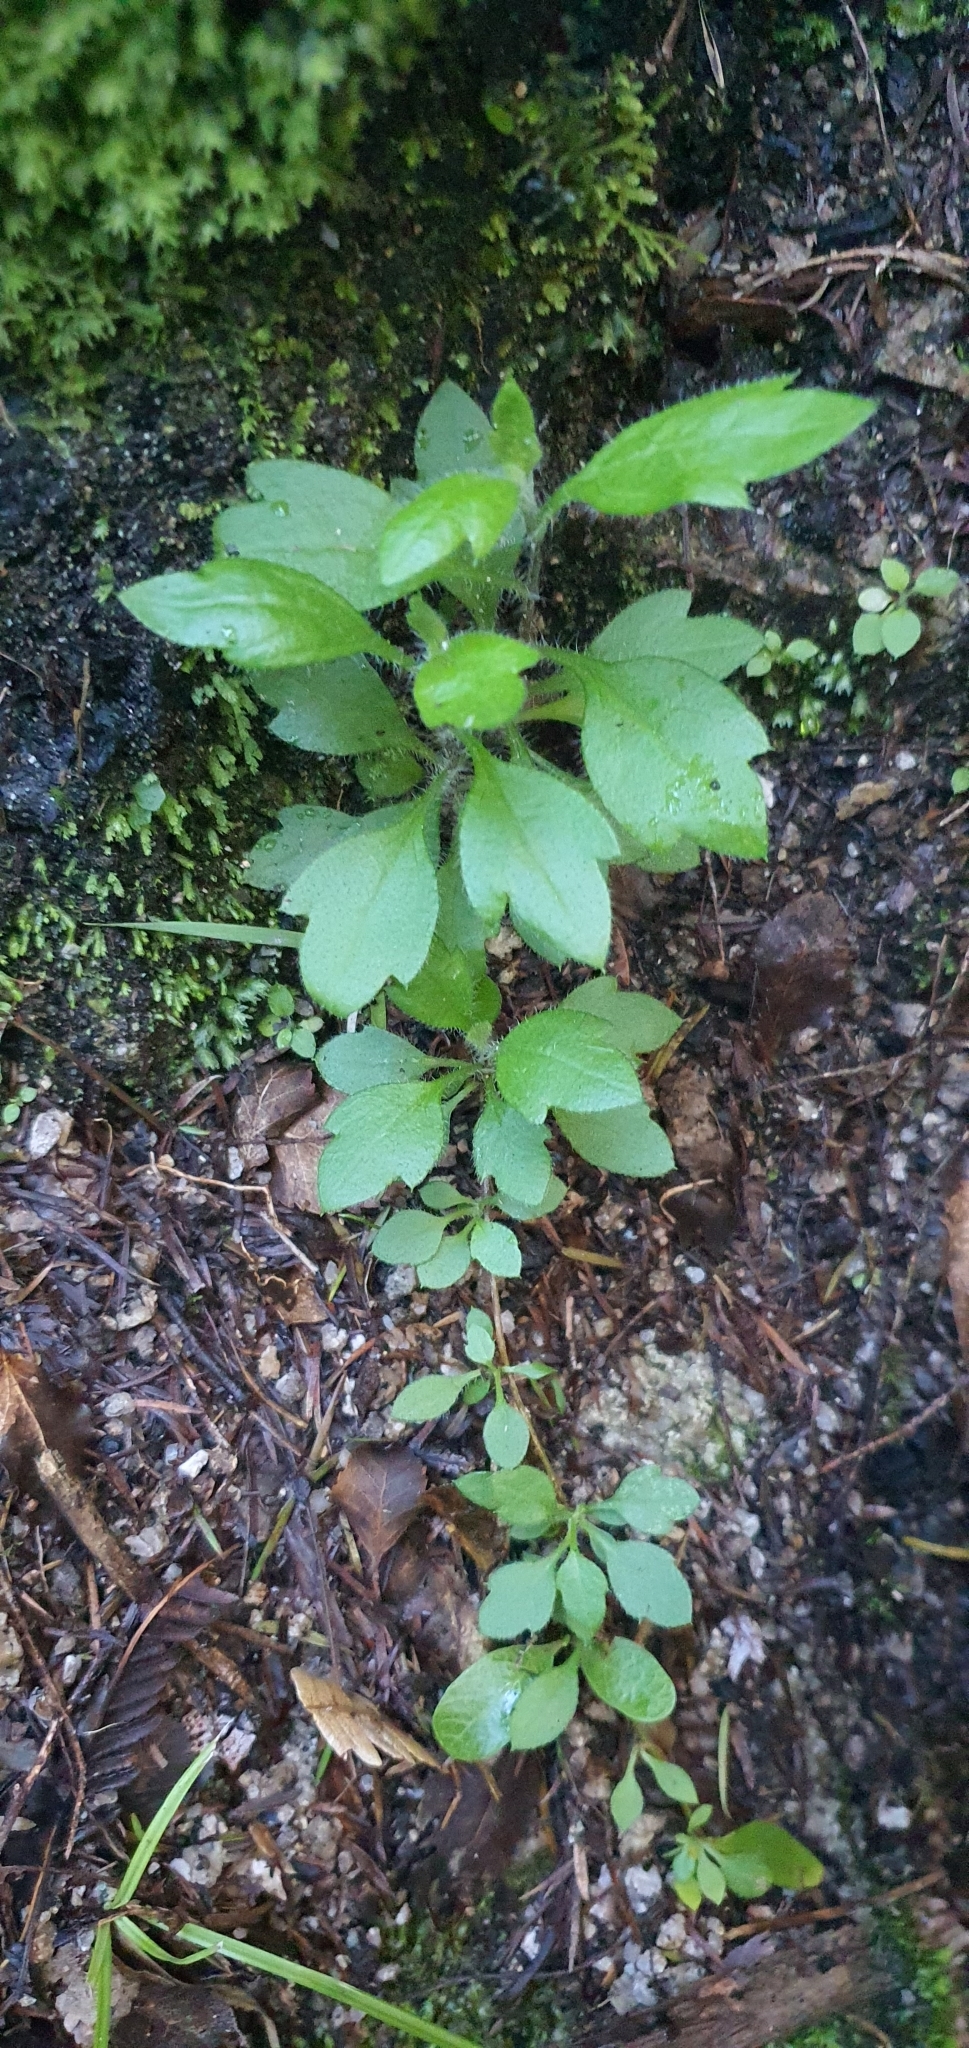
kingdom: Plantae
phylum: Tracheophyta
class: Magnoliopsida
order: Asterales
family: Asteraceae
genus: Erigeron
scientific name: Erigeron karvinskianus
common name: Mexican fleabane
